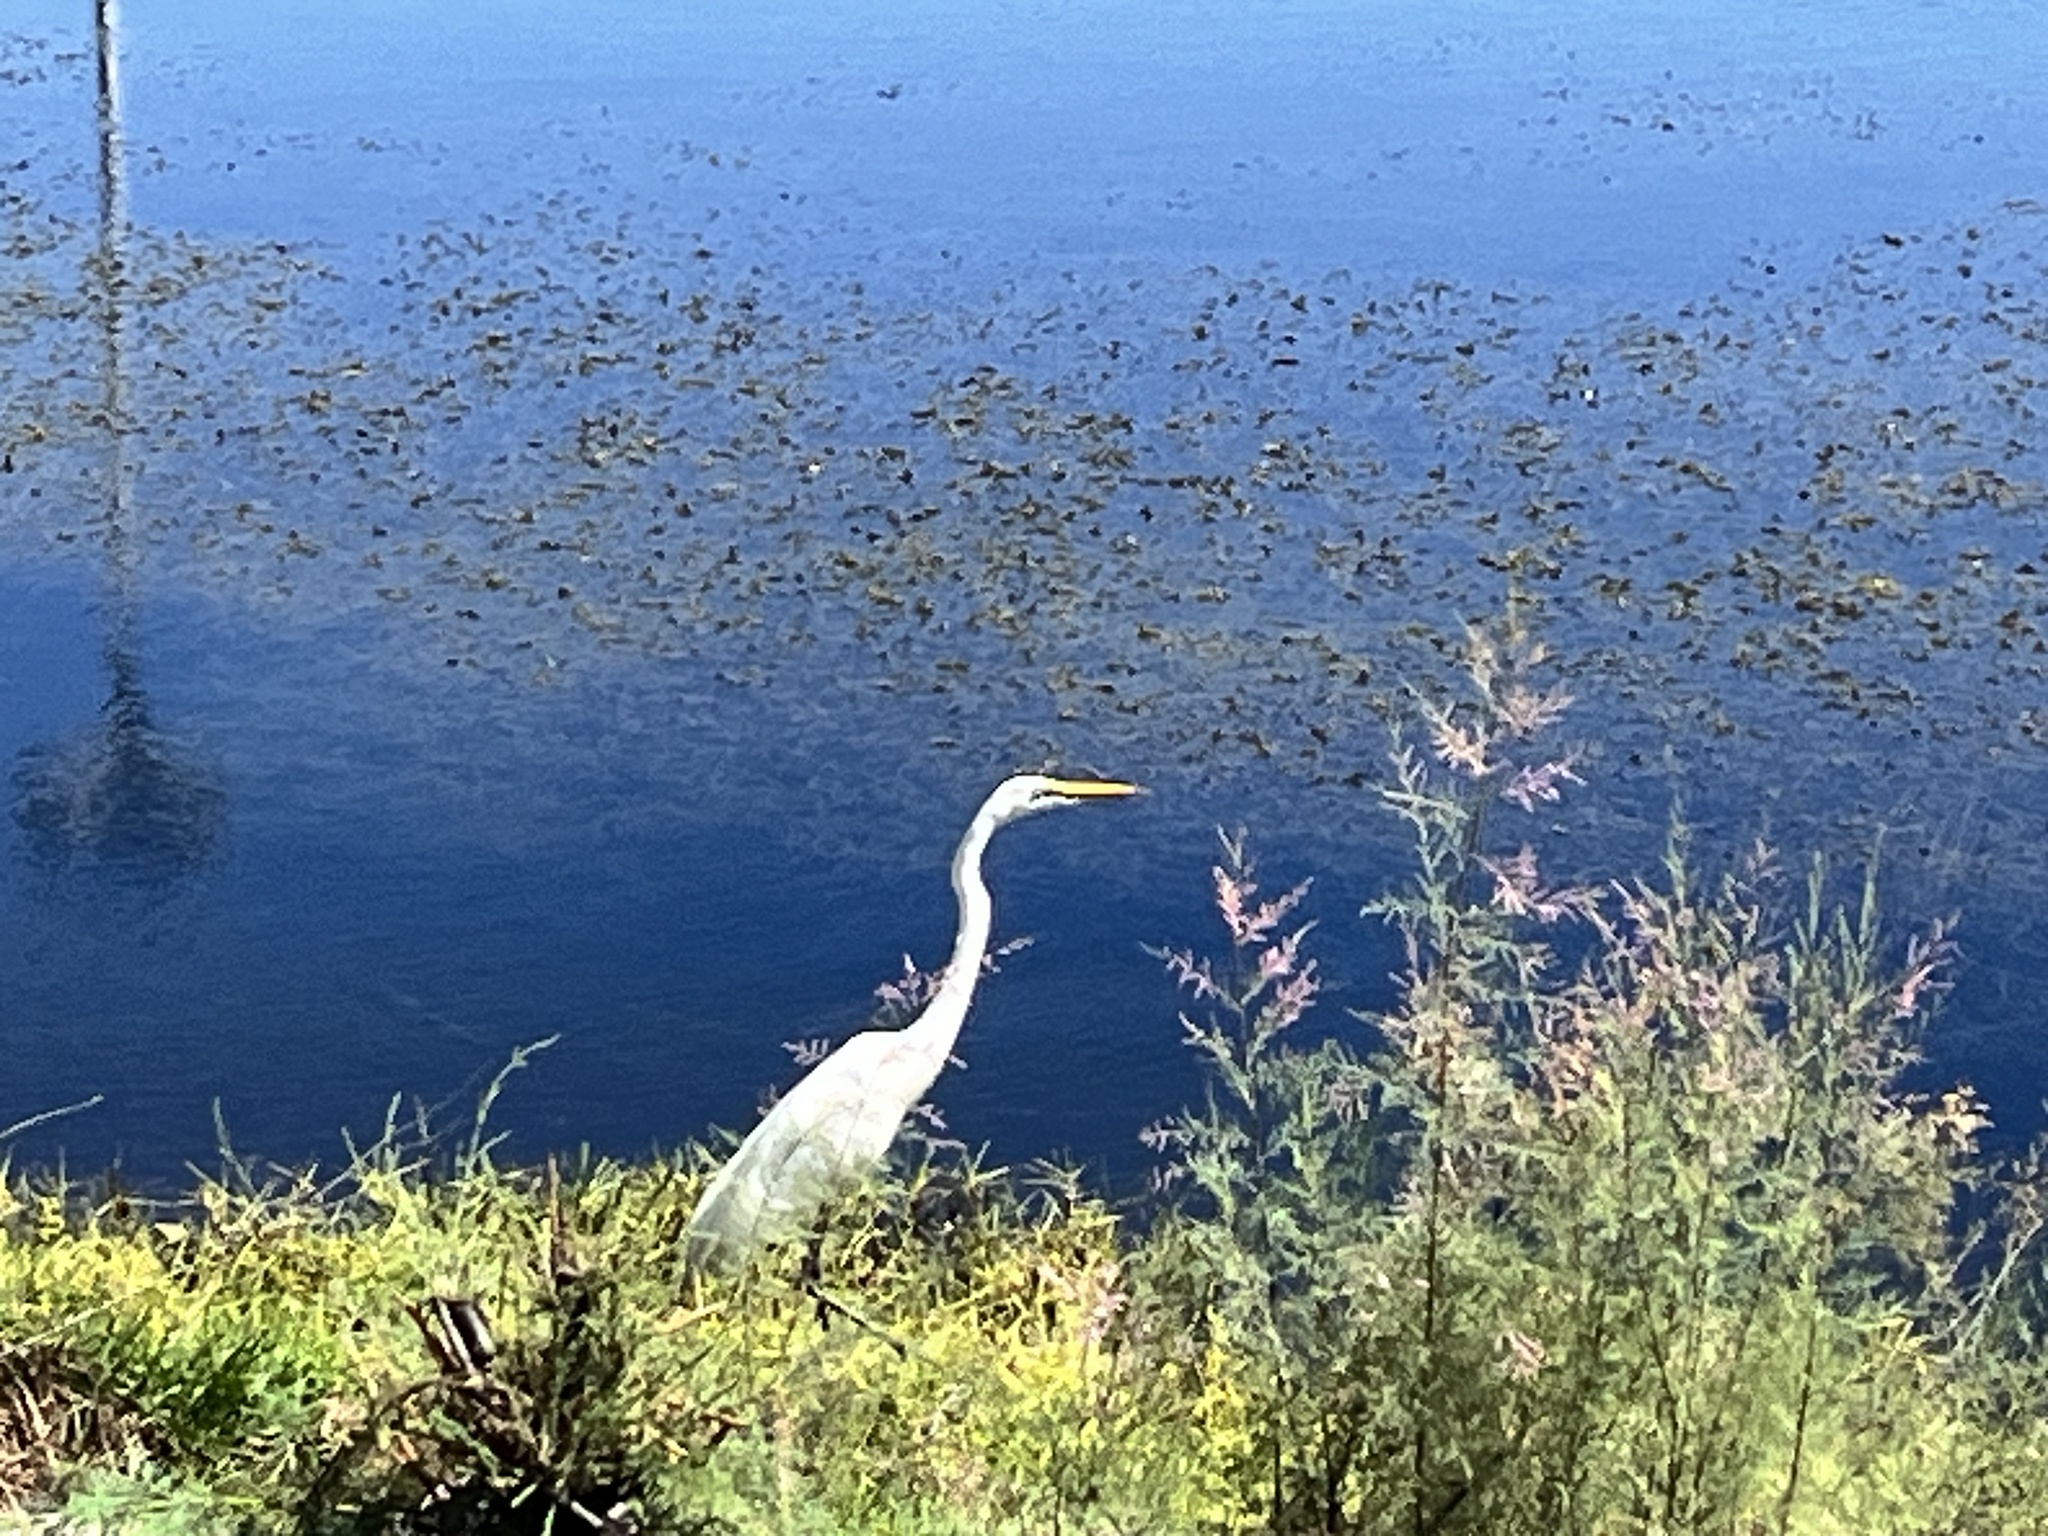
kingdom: Animalia
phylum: Chordata
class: Aves
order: Pelecaniformes
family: Ardeidae
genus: Ardea
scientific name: Ardea alba
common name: Great egret
